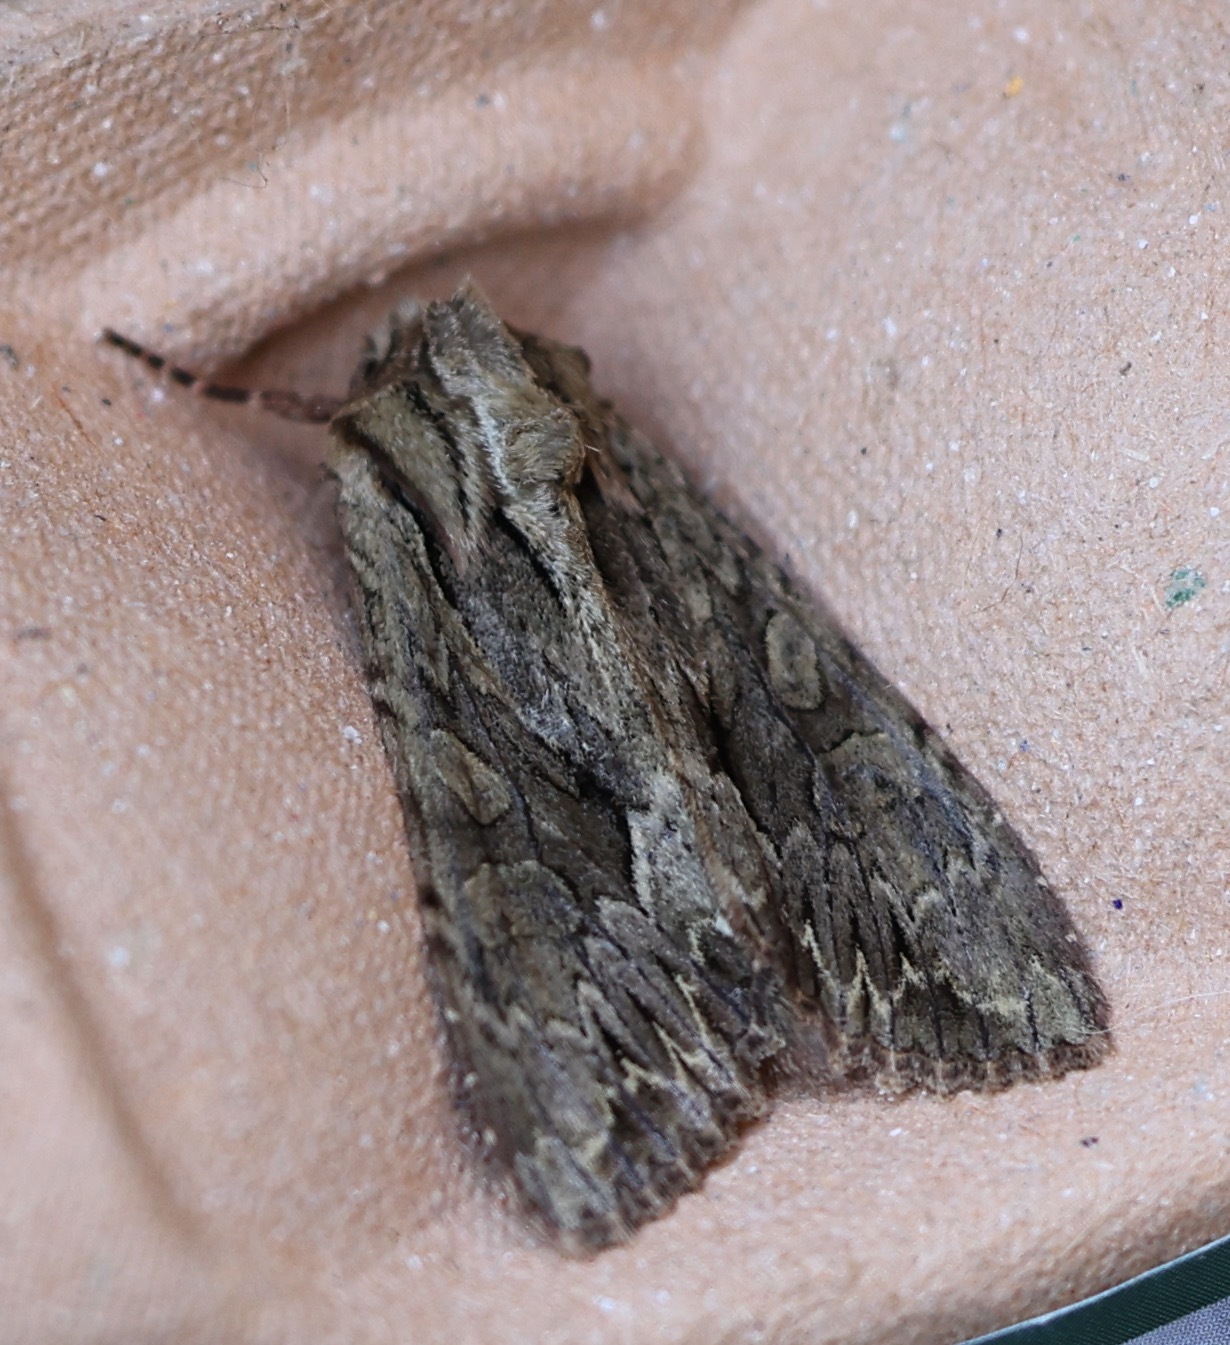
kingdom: Animalia
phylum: Arthropoda
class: Insecta
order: Lepidoptera
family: Noctuidae
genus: Apamea
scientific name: Apamea monoglypha
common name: Dark arches
